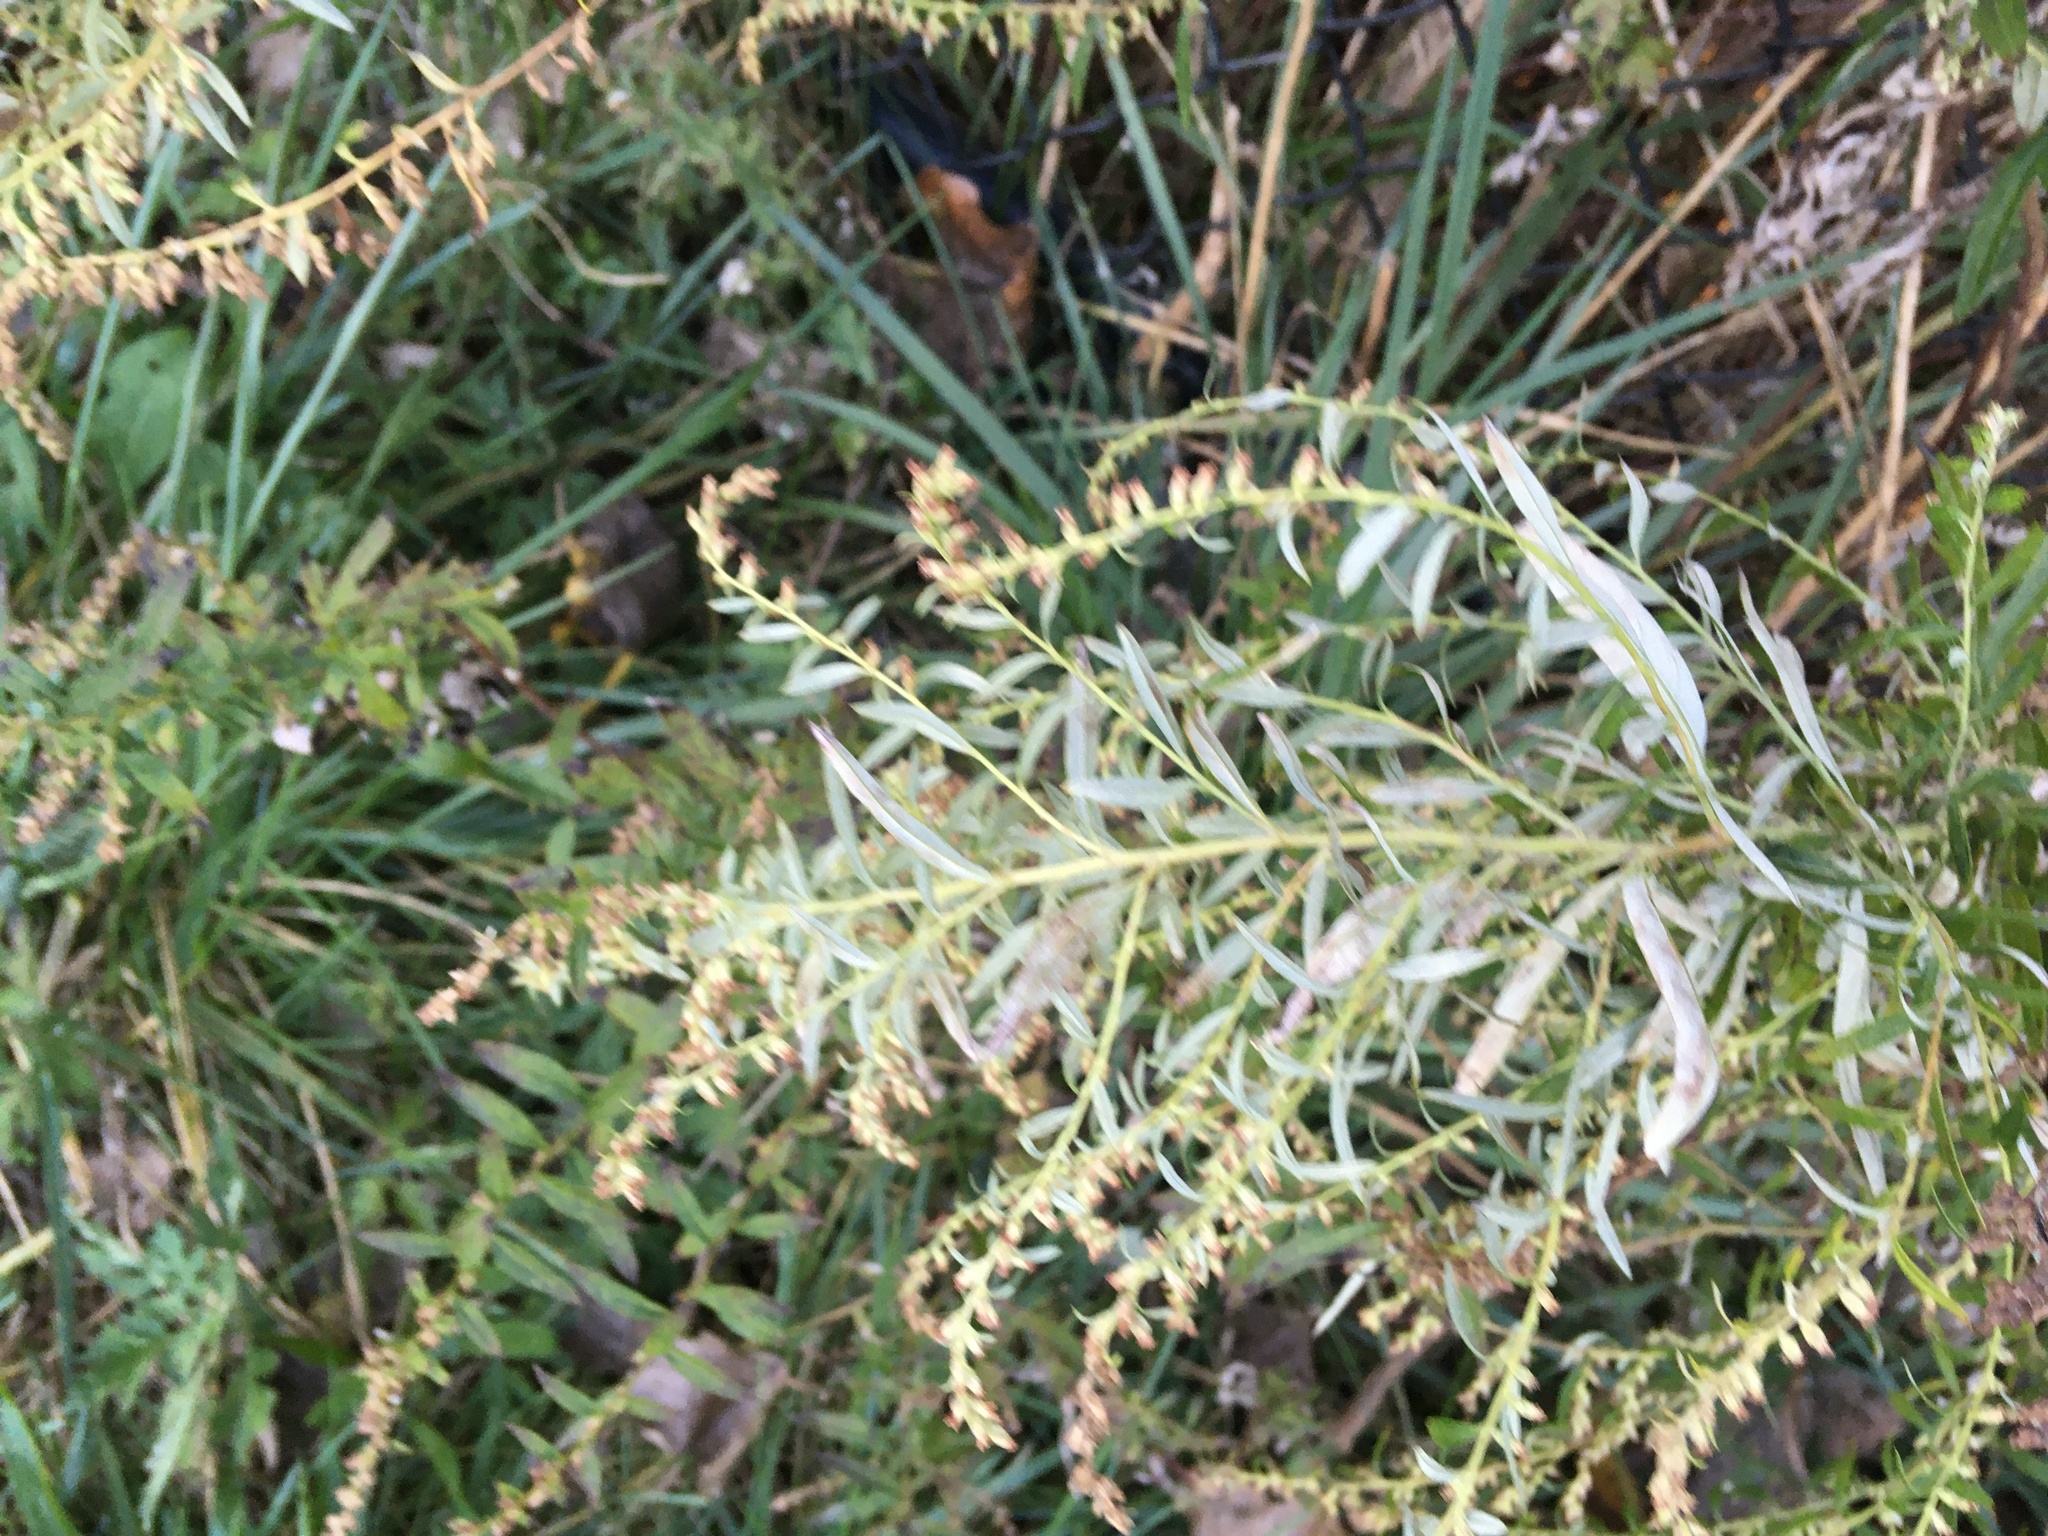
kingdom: Plantae
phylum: Tracheophyta
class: Magnoliopsida
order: Asterales
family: Asteraceae
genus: Artemisia
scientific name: Artemisia vulgaris
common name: Mugwort
